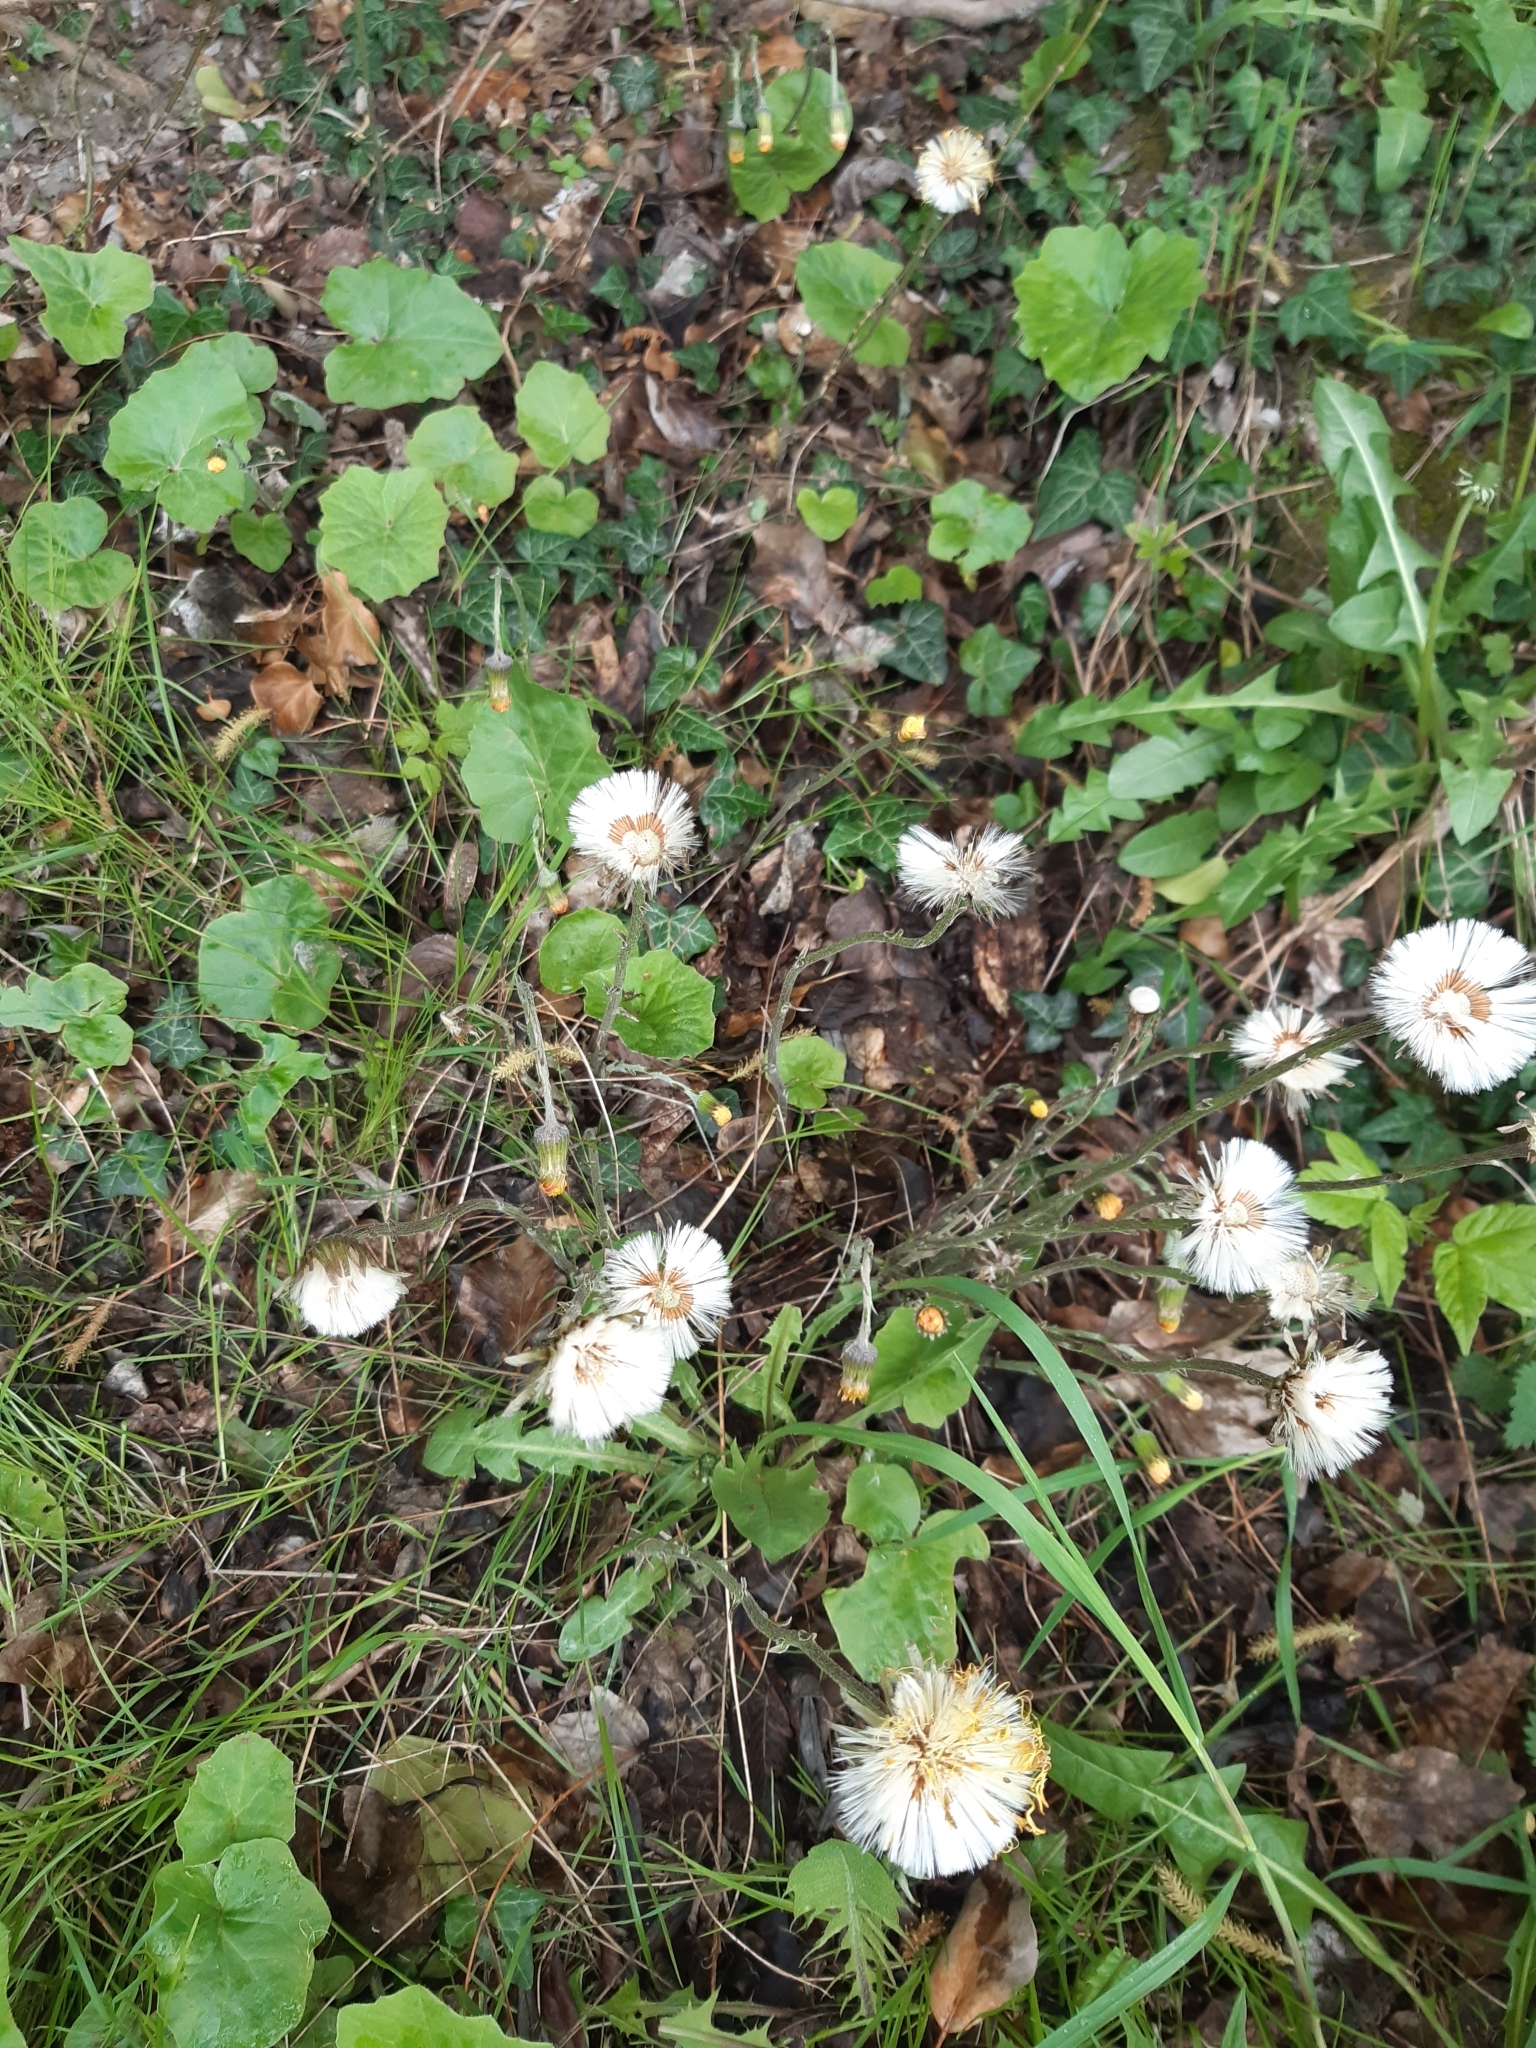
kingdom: Plantae
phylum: Tracheophyta
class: Magnoliopsida
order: Asterales
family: Asteraceae
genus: Tussilago
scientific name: Tussilago farfara
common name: Coltsfoot
